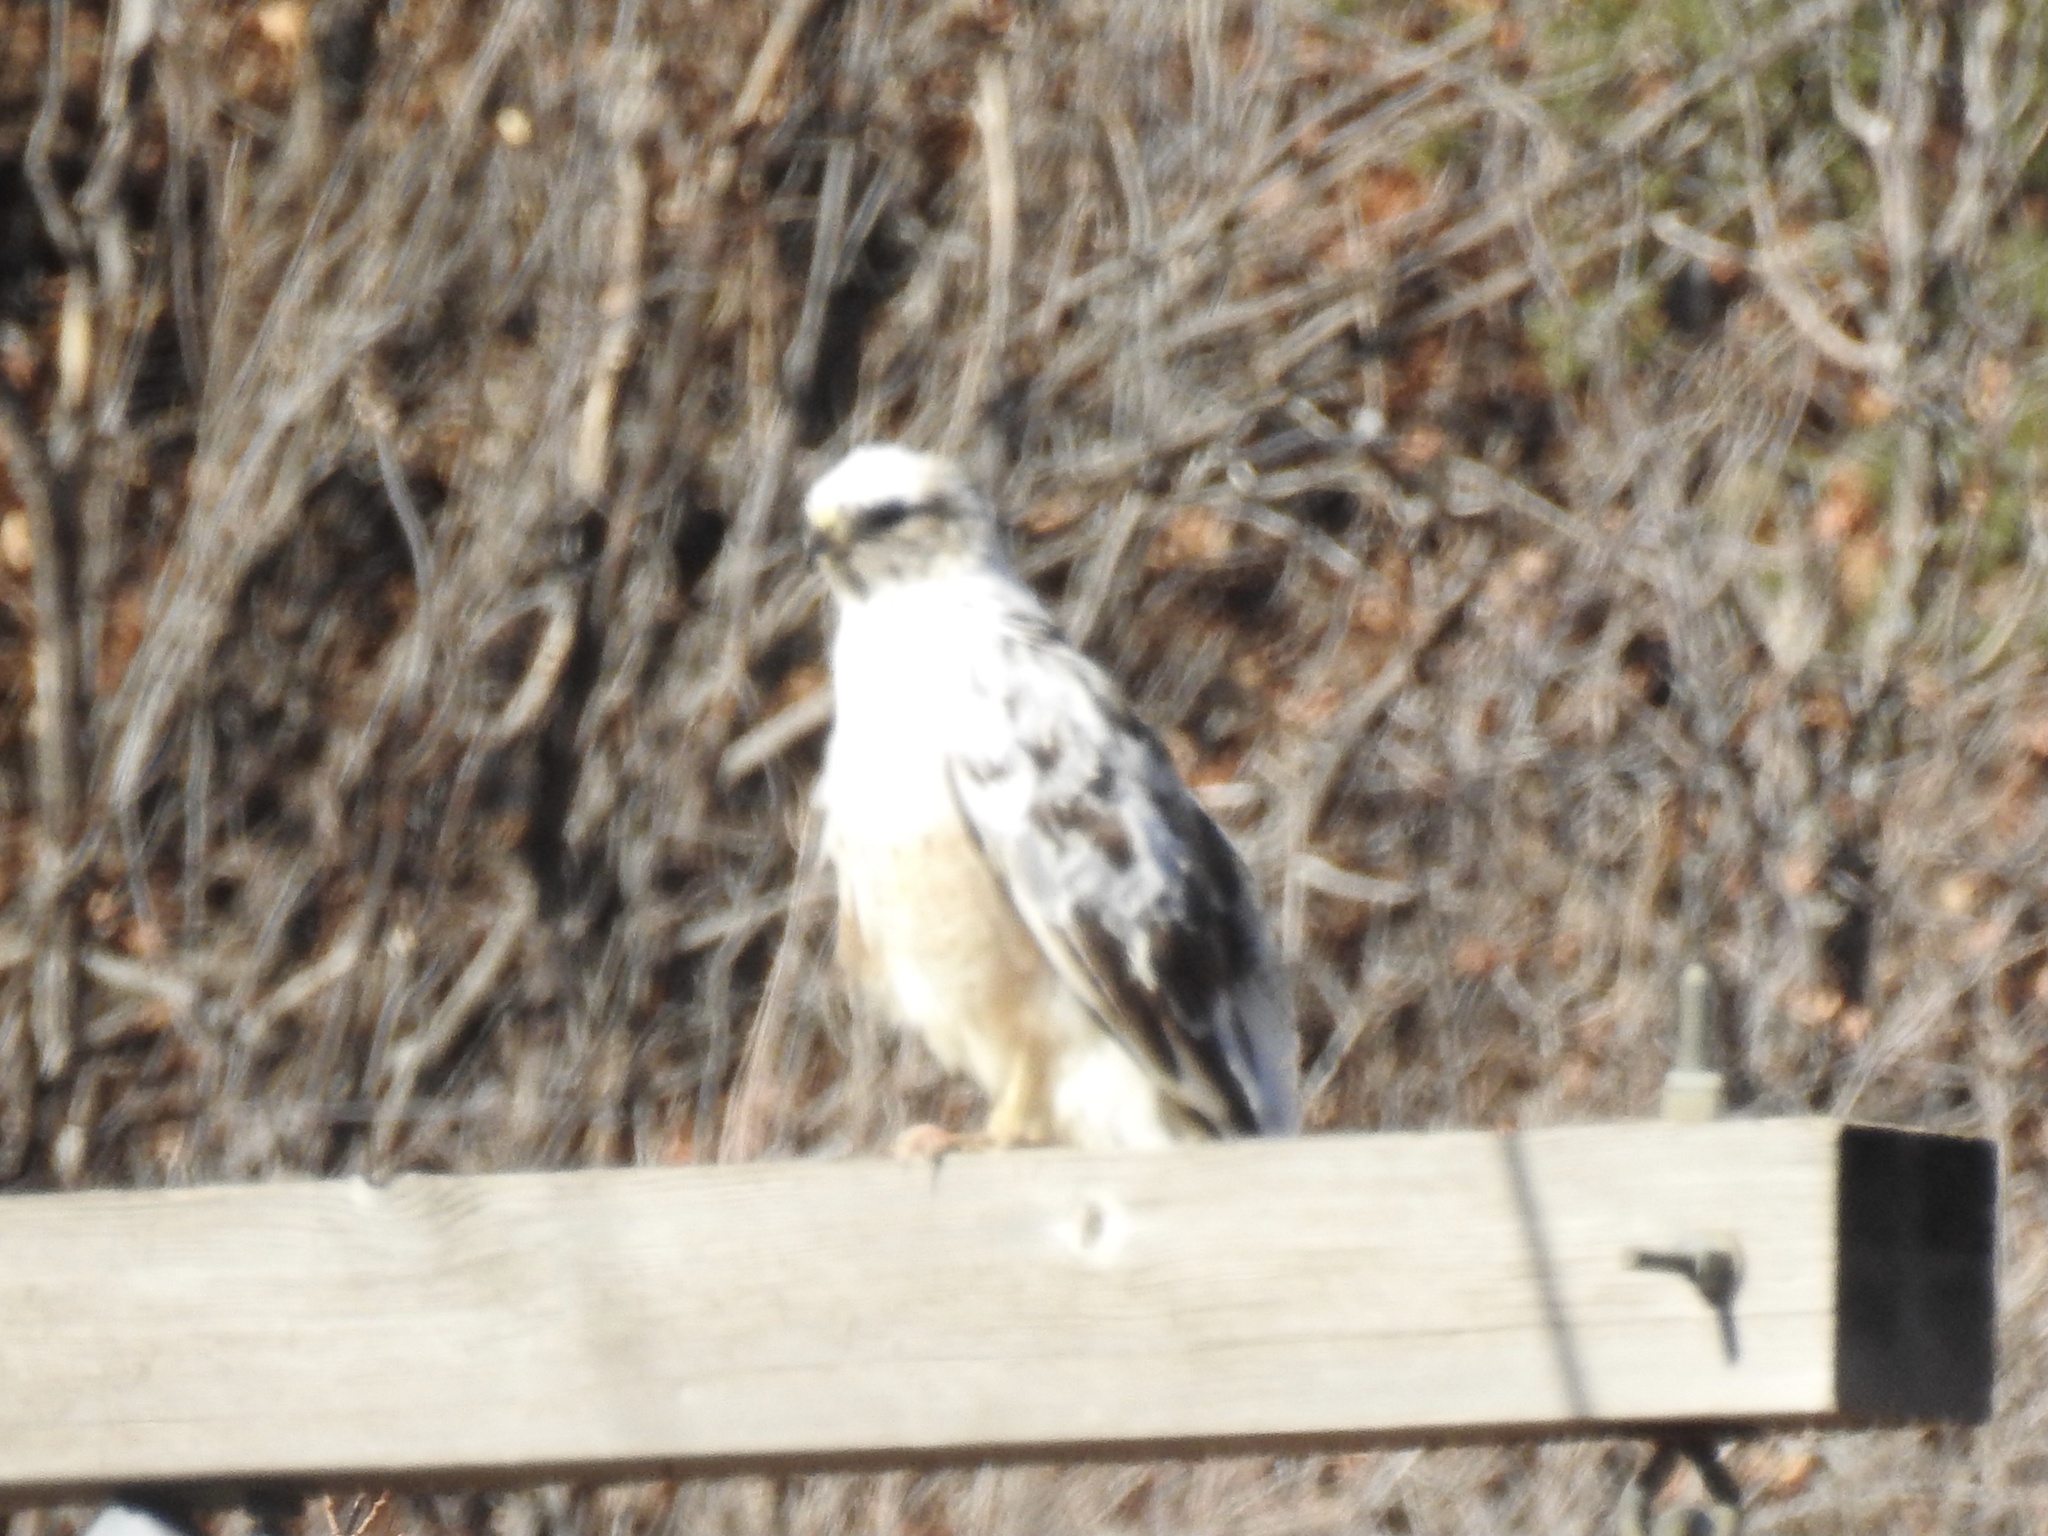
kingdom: Animalia
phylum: Chordata
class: Aves
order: Accipitriformes
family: Accipitridae
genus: Buteo
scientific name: Buteo jamaicensis
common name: Red-tailed hawk
